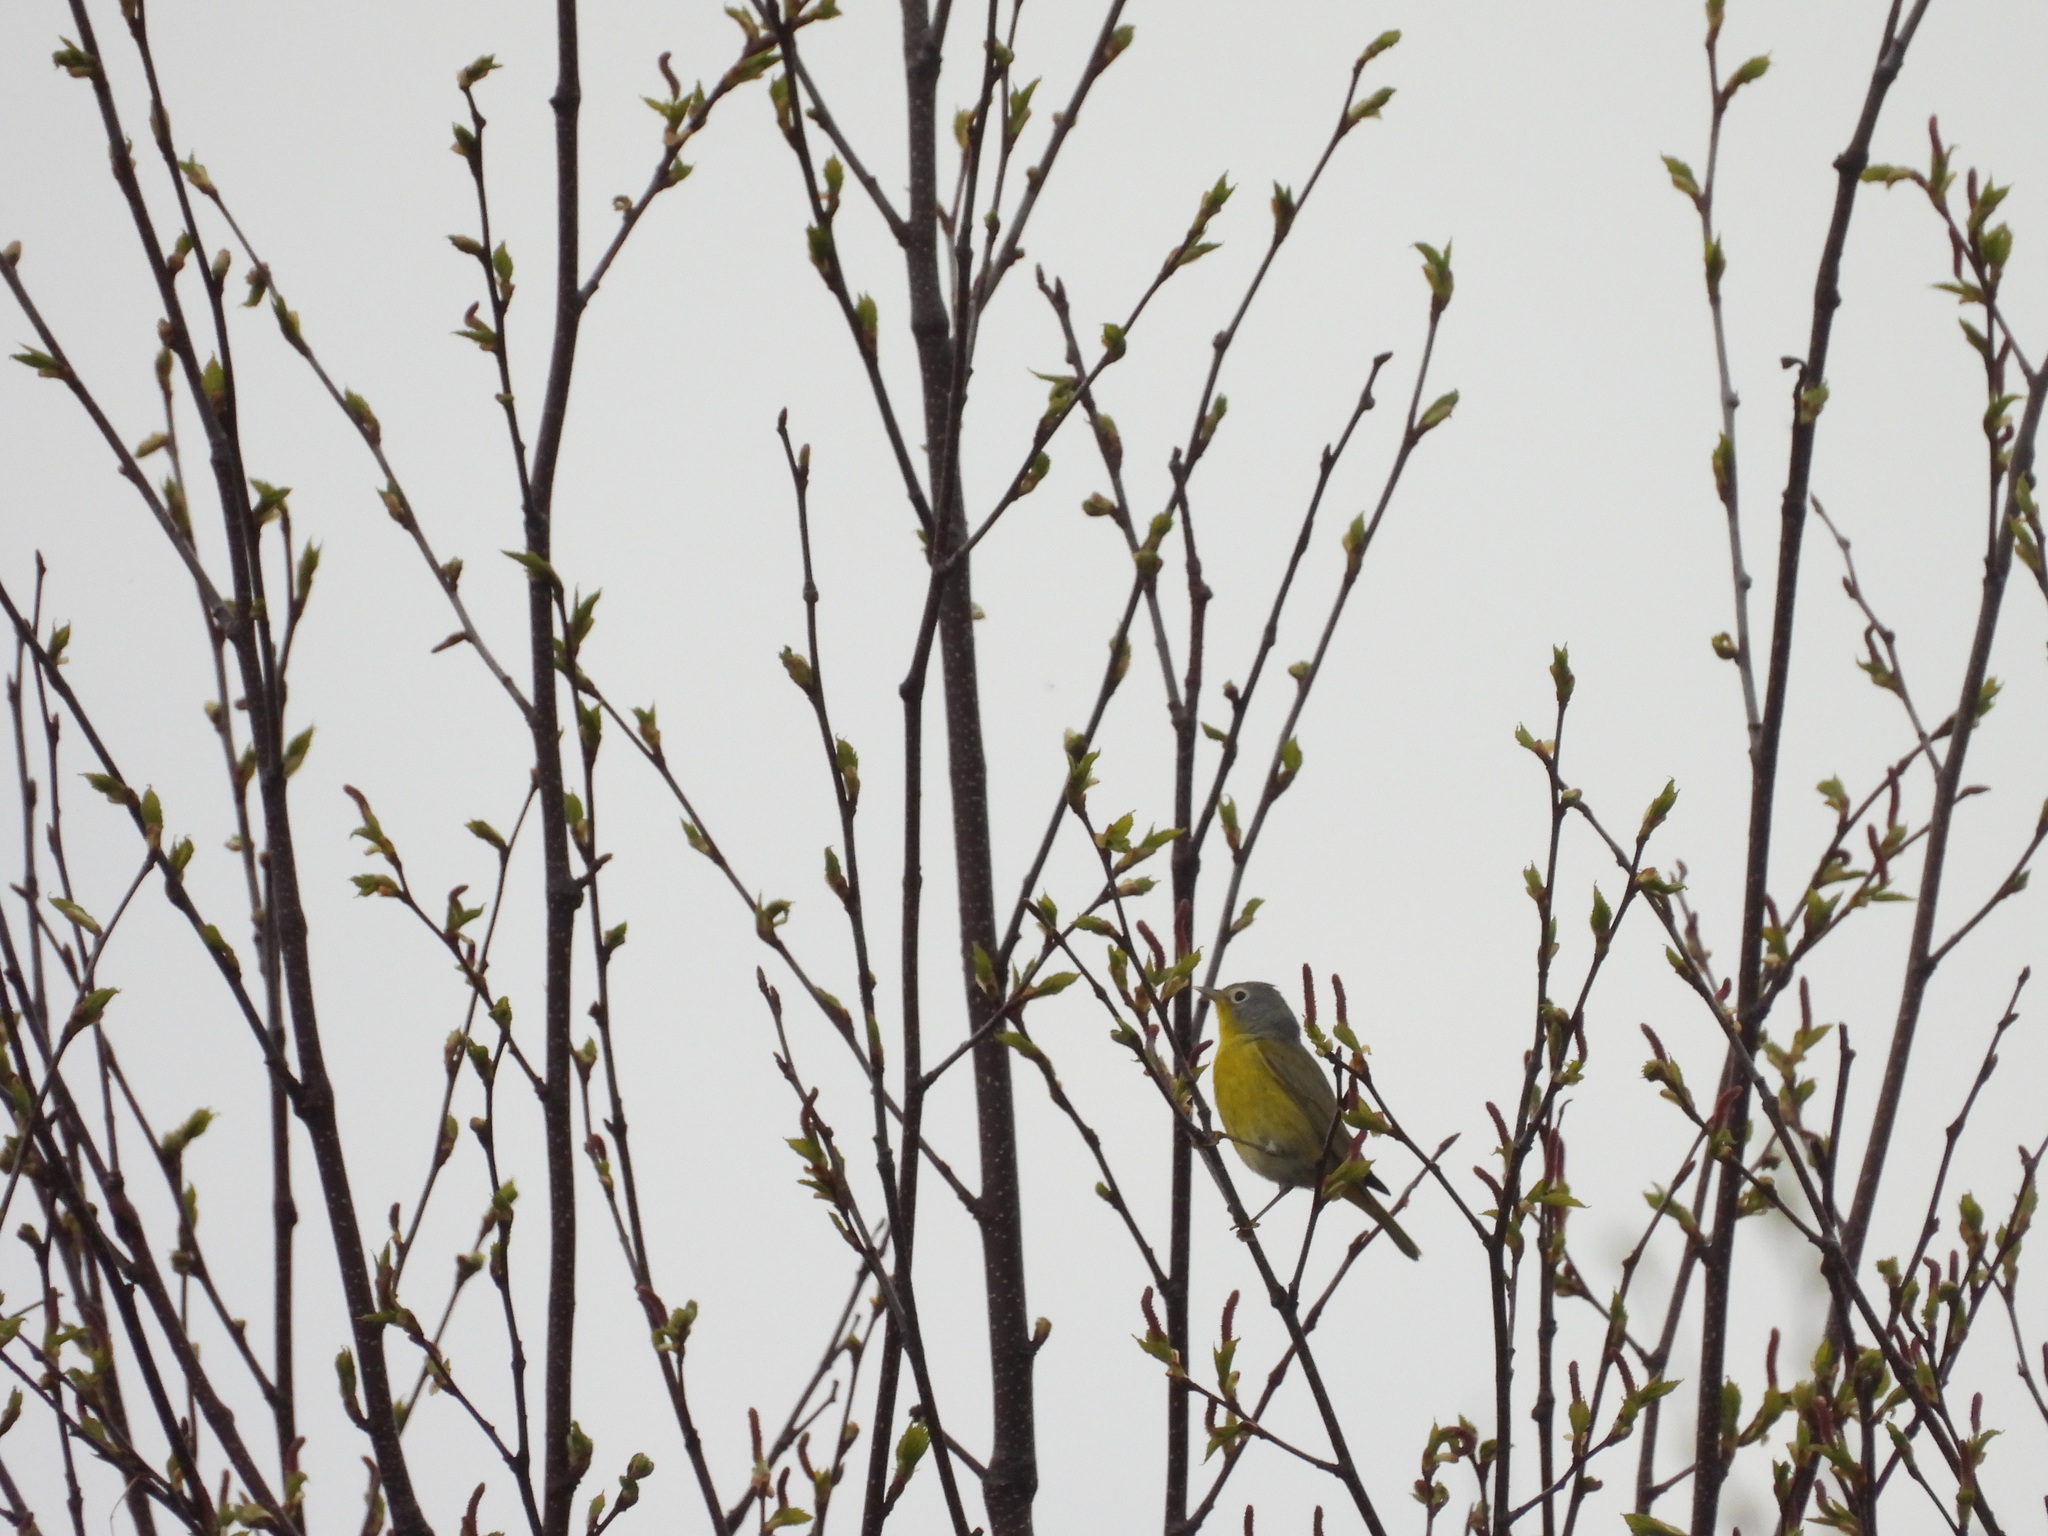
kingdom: Animalia
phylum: Chordata
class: Aves
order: Passeriformes
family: Parulidae
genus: Leiothlypis
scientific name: Leiothlypis ruficapilla
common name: Nashville warbler
